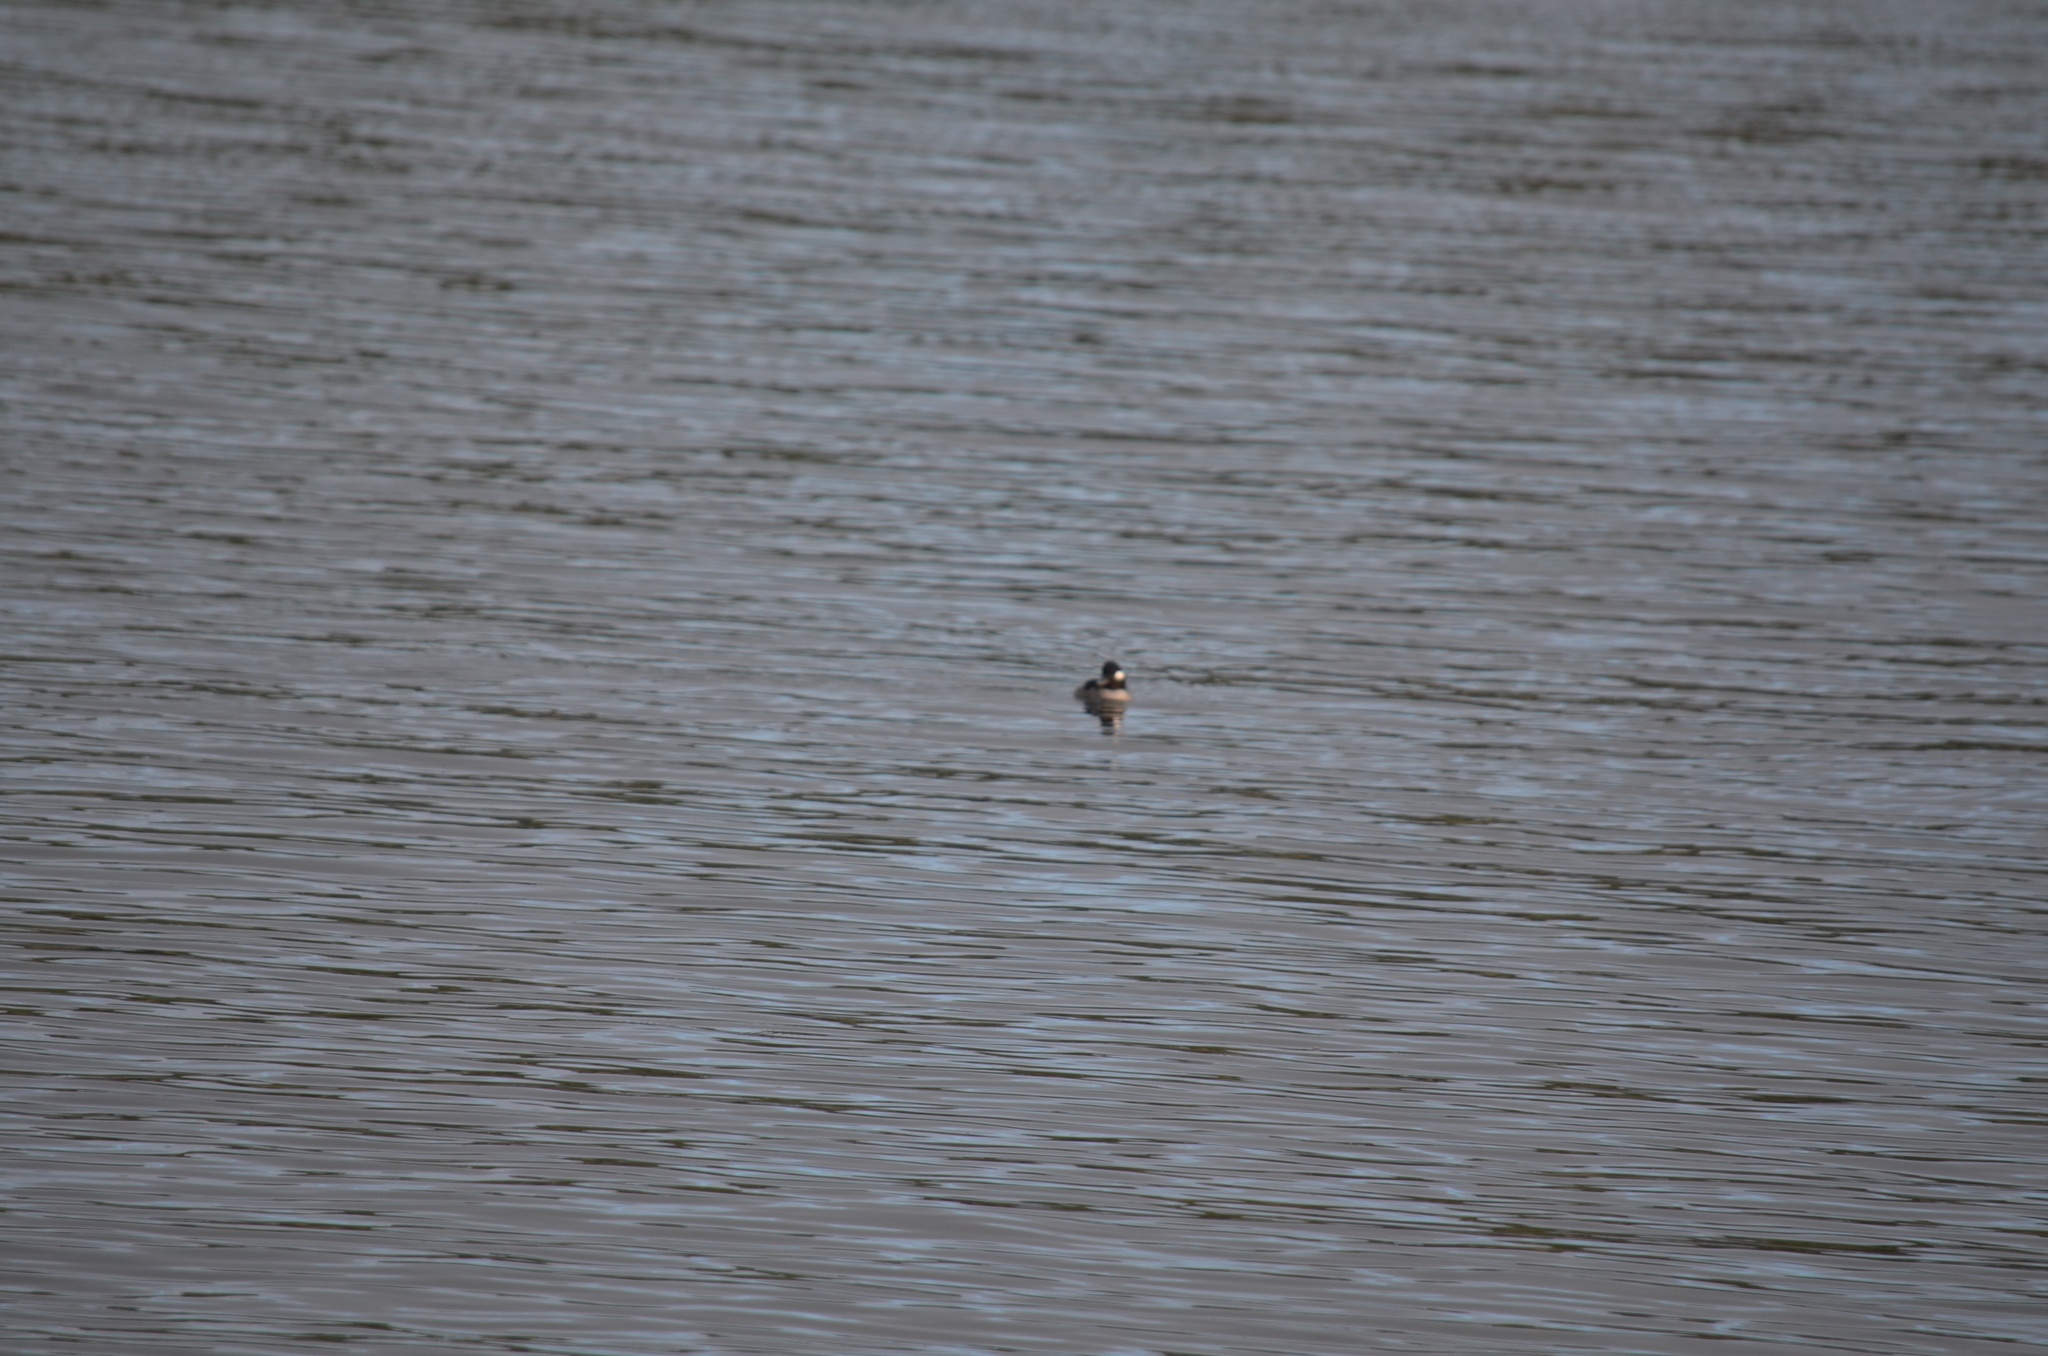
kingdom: Animalia
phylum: Chordata
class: Aves
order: Anseriformes
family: Anatidae
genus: Bucephala
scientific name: Bucephala albeola
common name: Bufflehead
